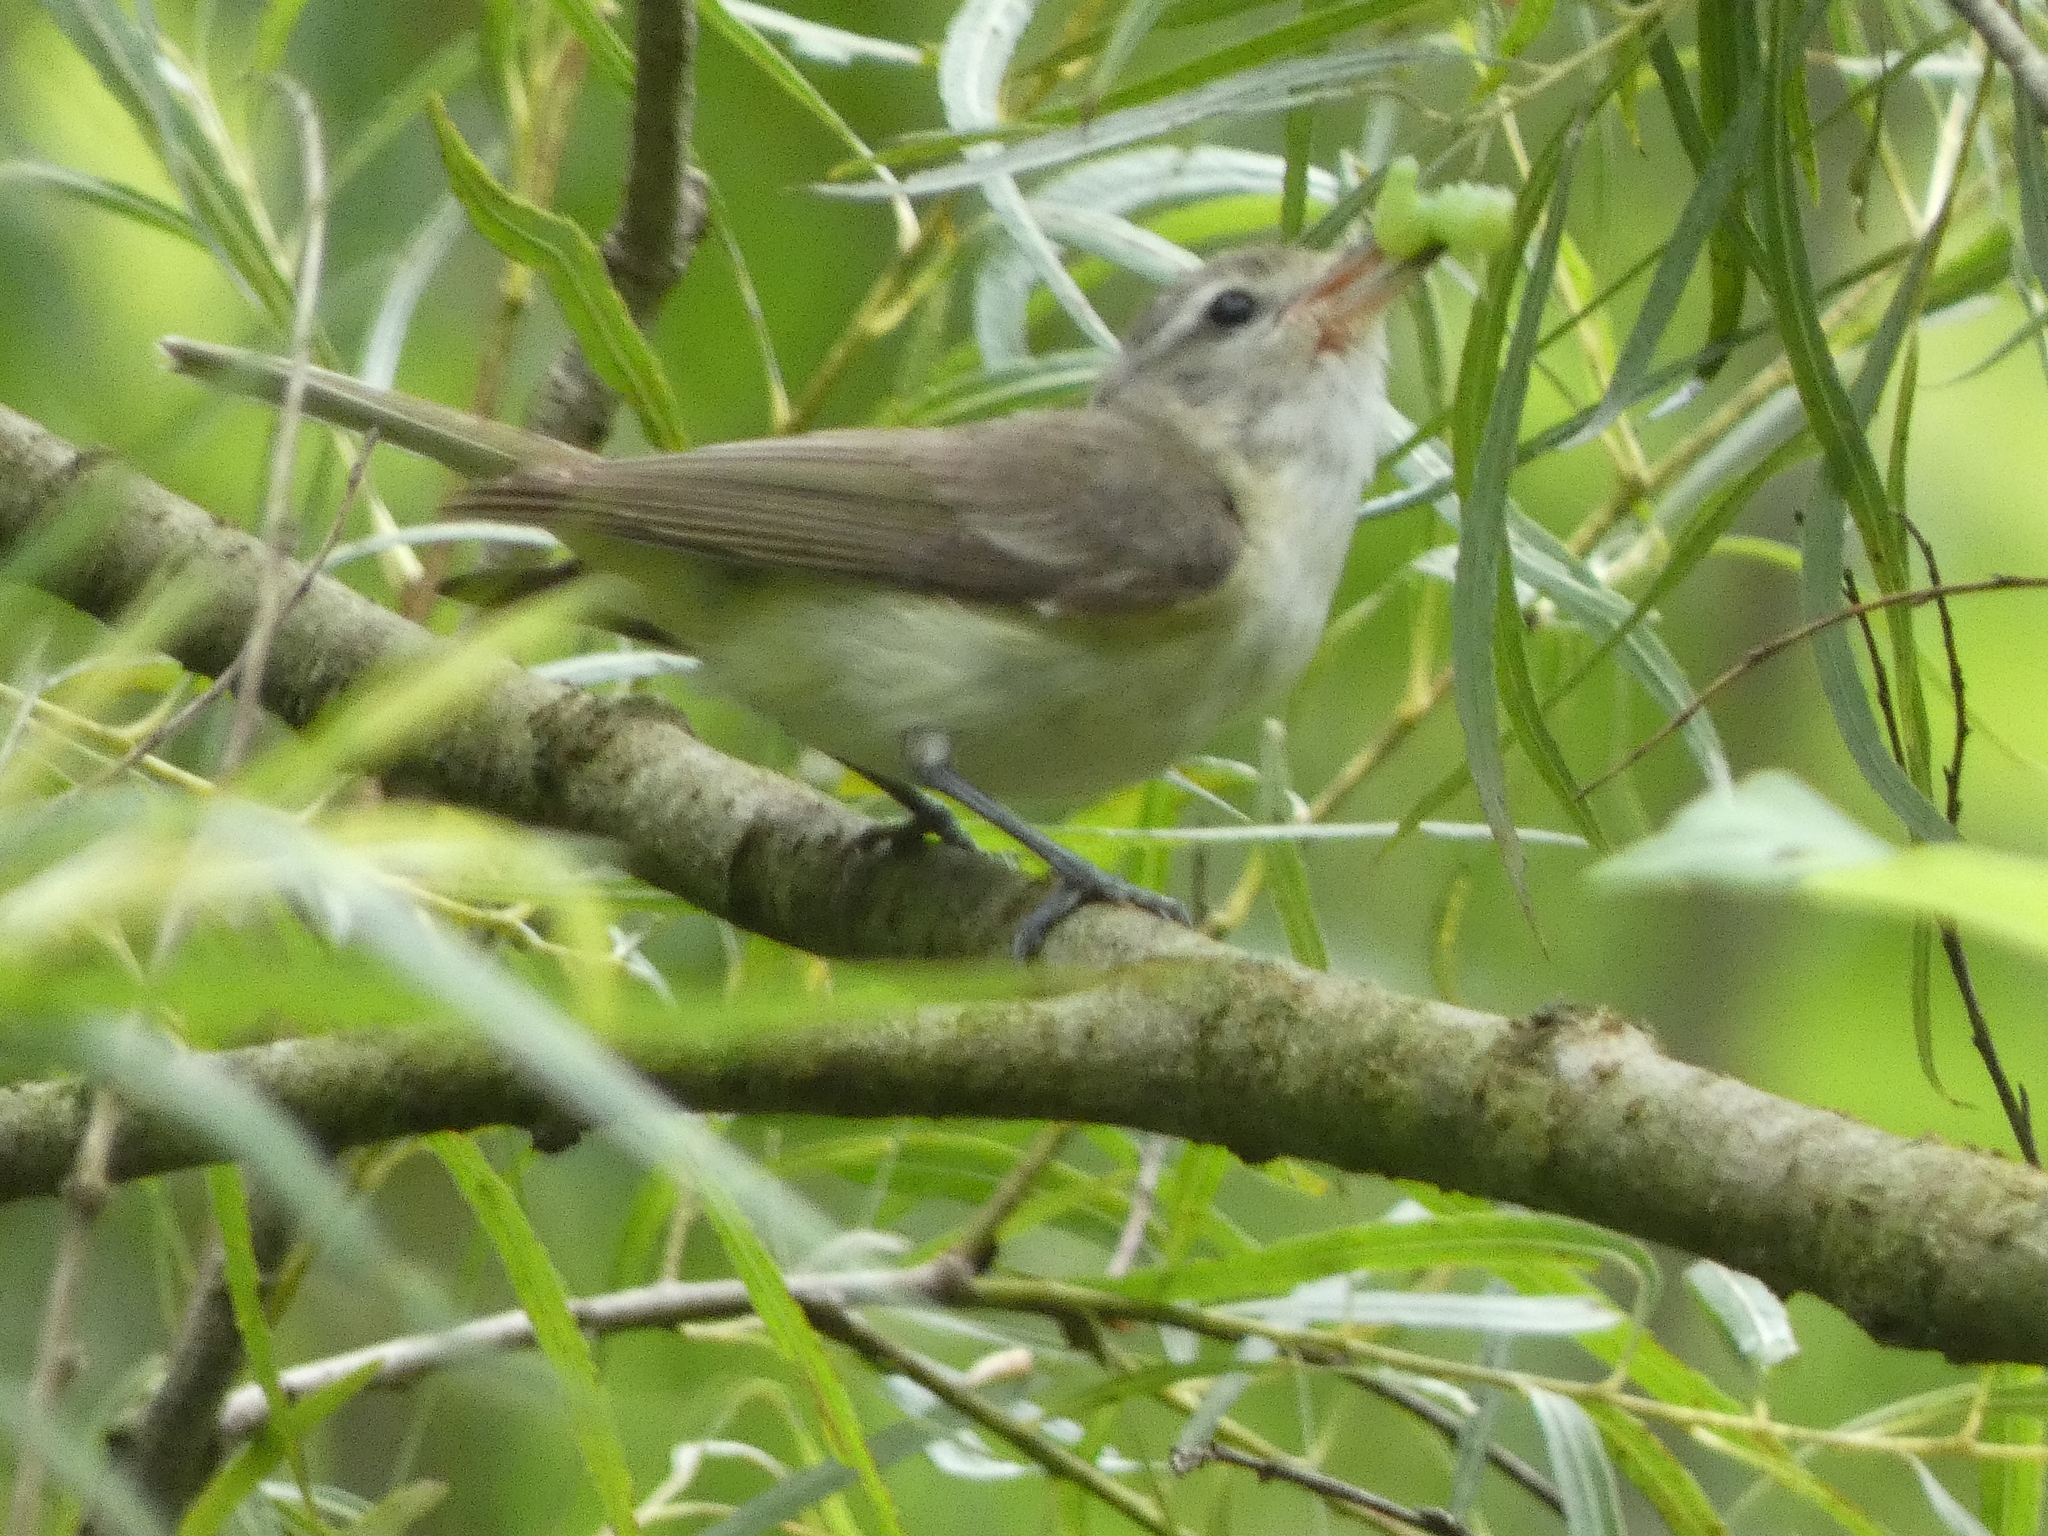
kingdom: Animalia
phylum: Chordata
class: Aves
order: Passeriformes
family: Vireonidae
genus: Vireo
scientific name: Vireo gilvus
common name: Warbling vireo
